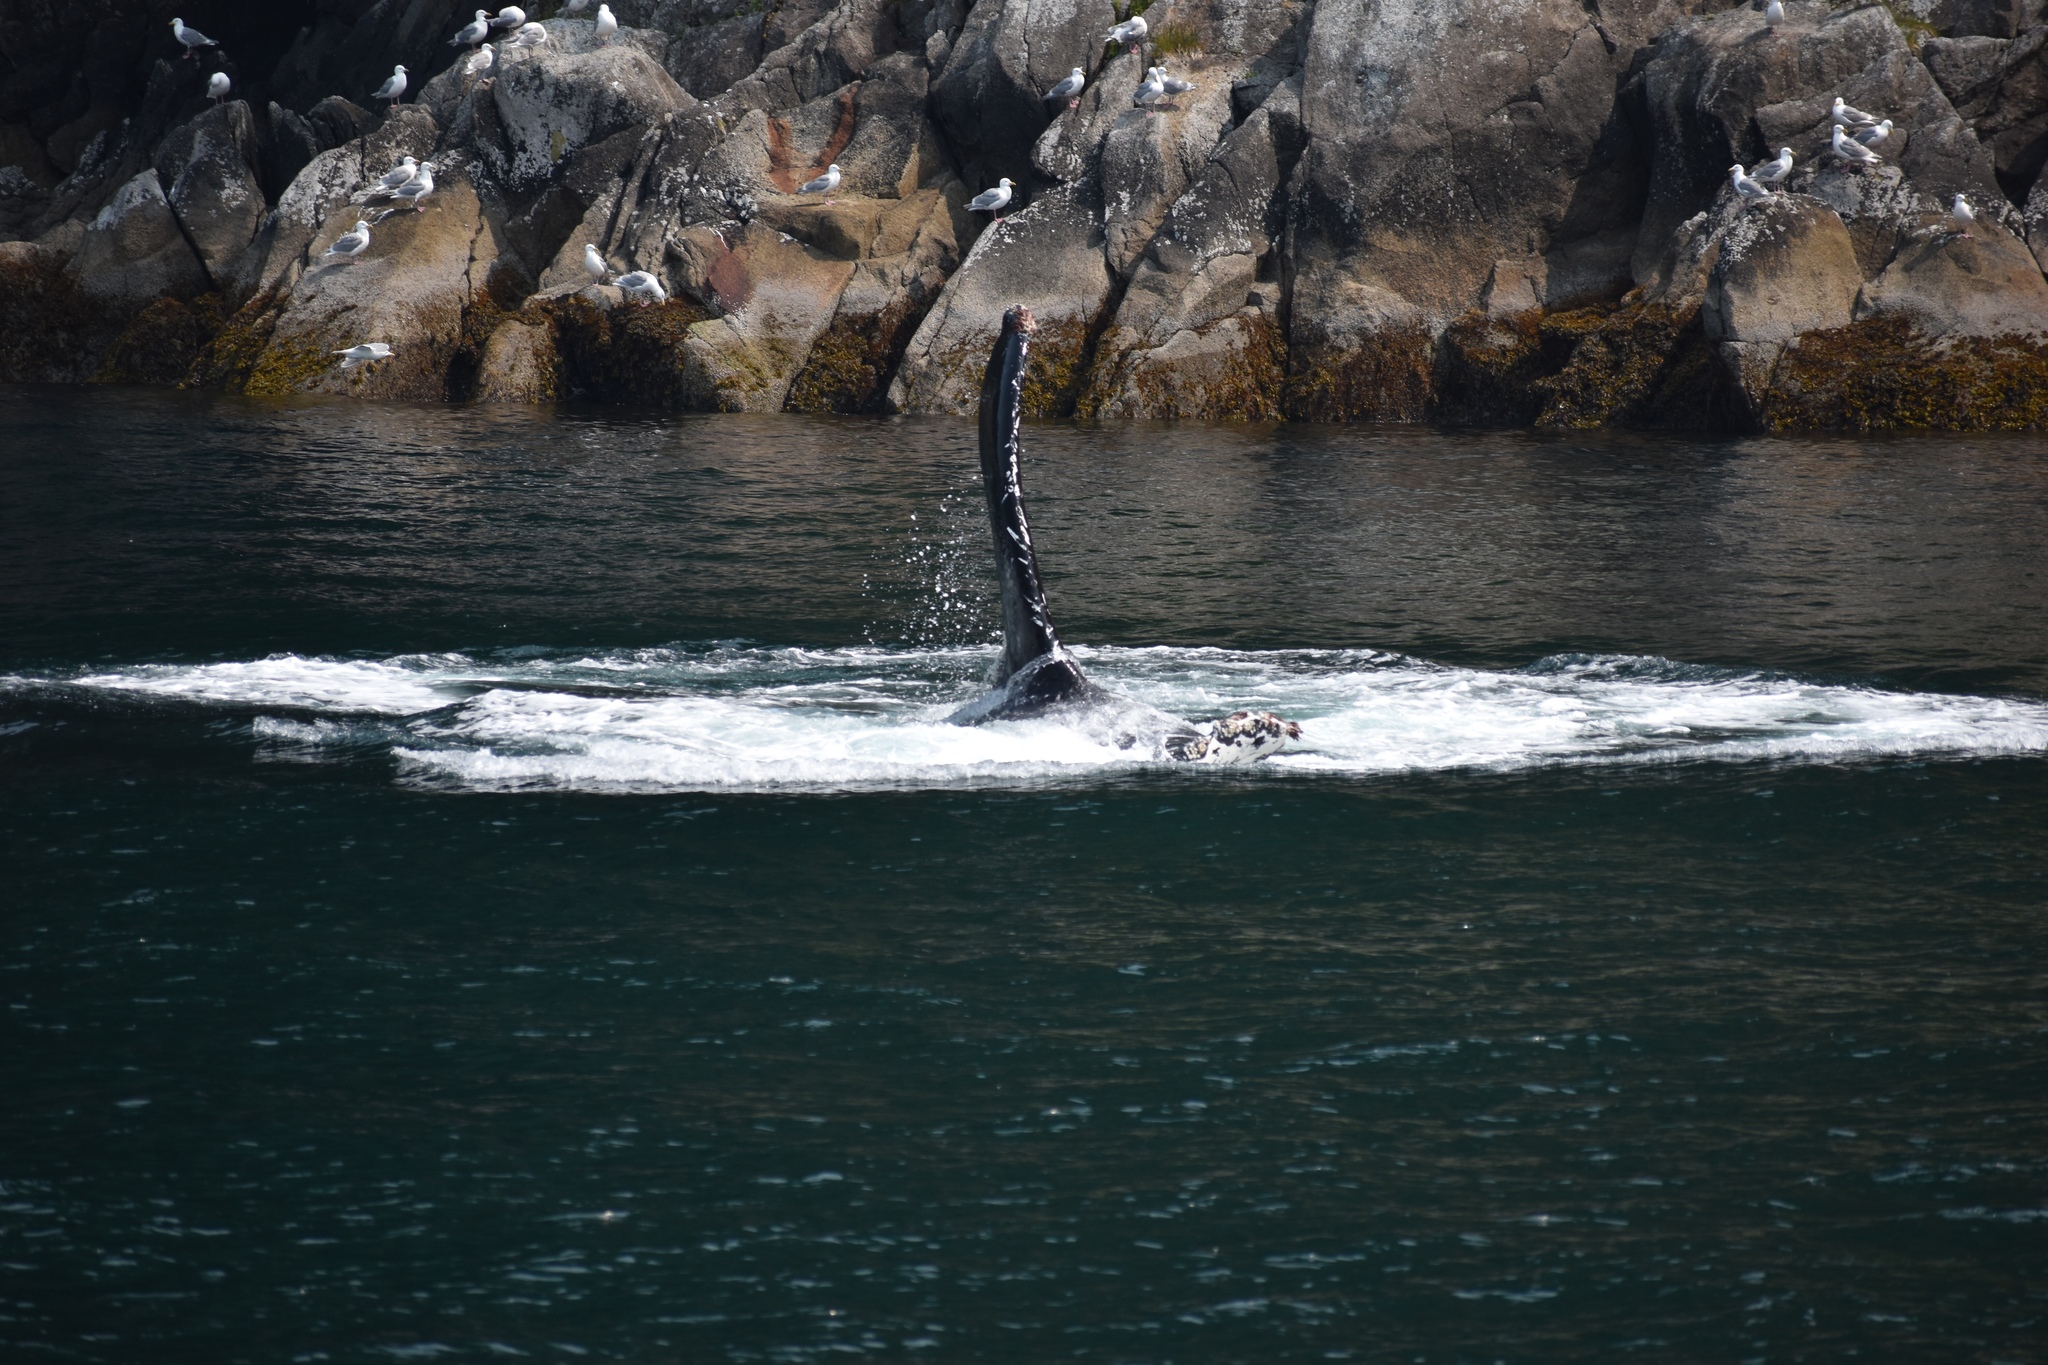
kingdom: Animalia
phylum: Chordata
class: Mammalia
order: Cetacea
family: Balaenopteridae
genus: Megaptera
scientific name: Megaptera novaeangliae
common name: Humpback whale
